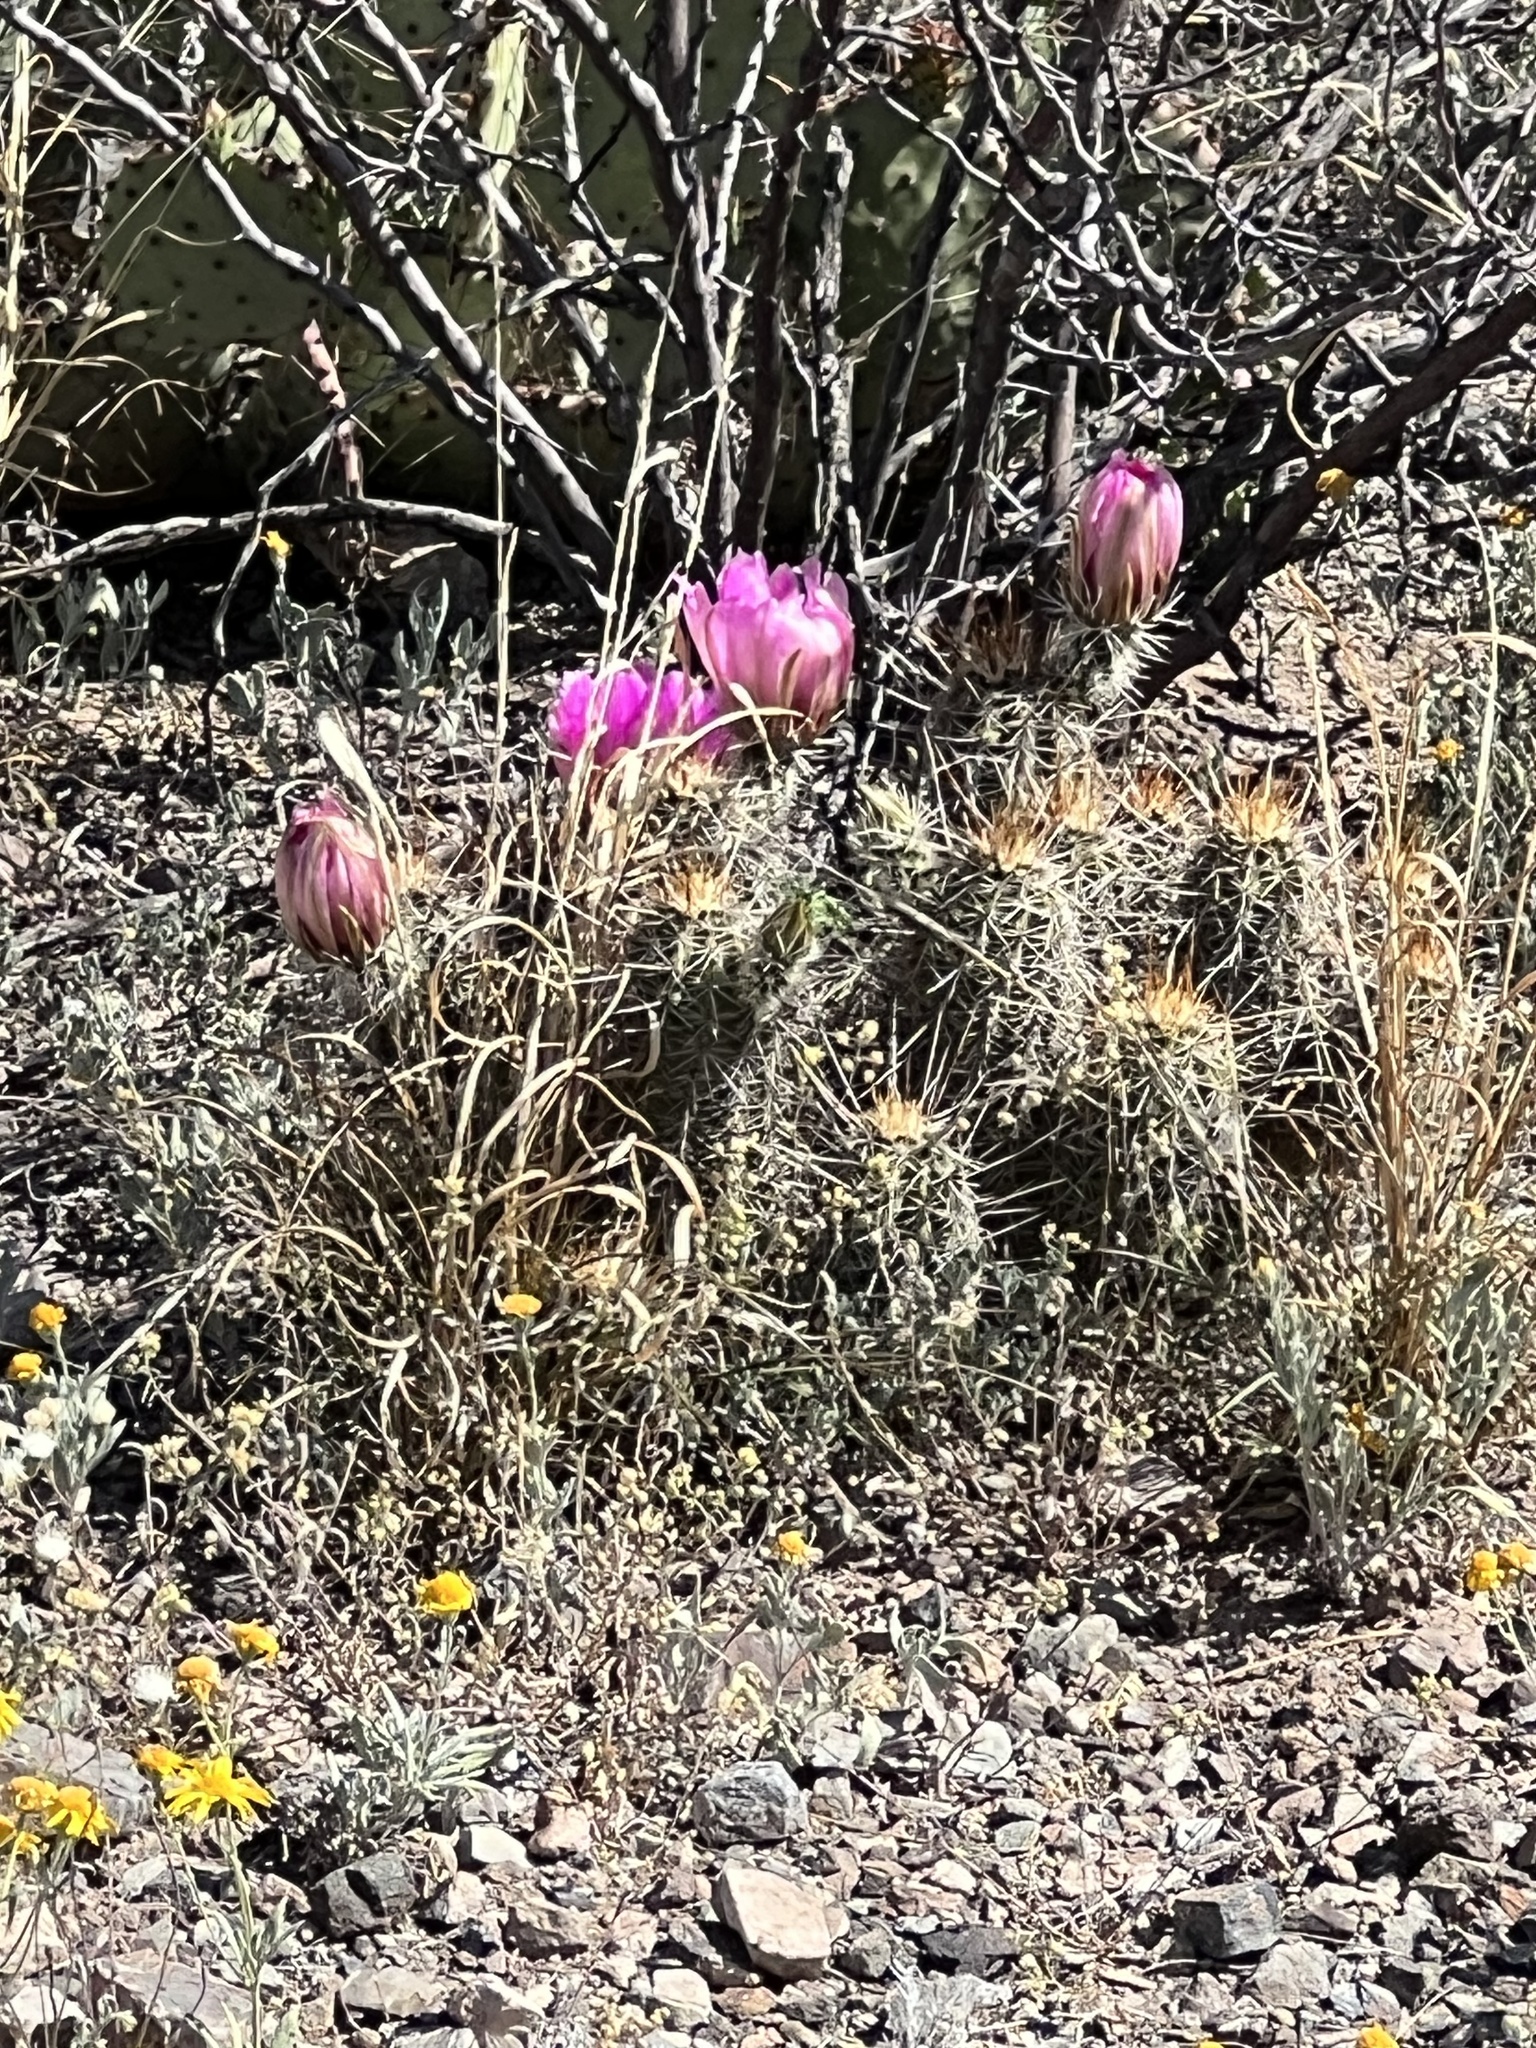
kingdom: Plantae
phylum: Tracheophyta
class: Magnoliopsida
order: Caryophyllales
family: Cactaceae
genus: Echinocereus
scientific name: Echinocereus fasciculatus
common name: Bundle hedgehog
